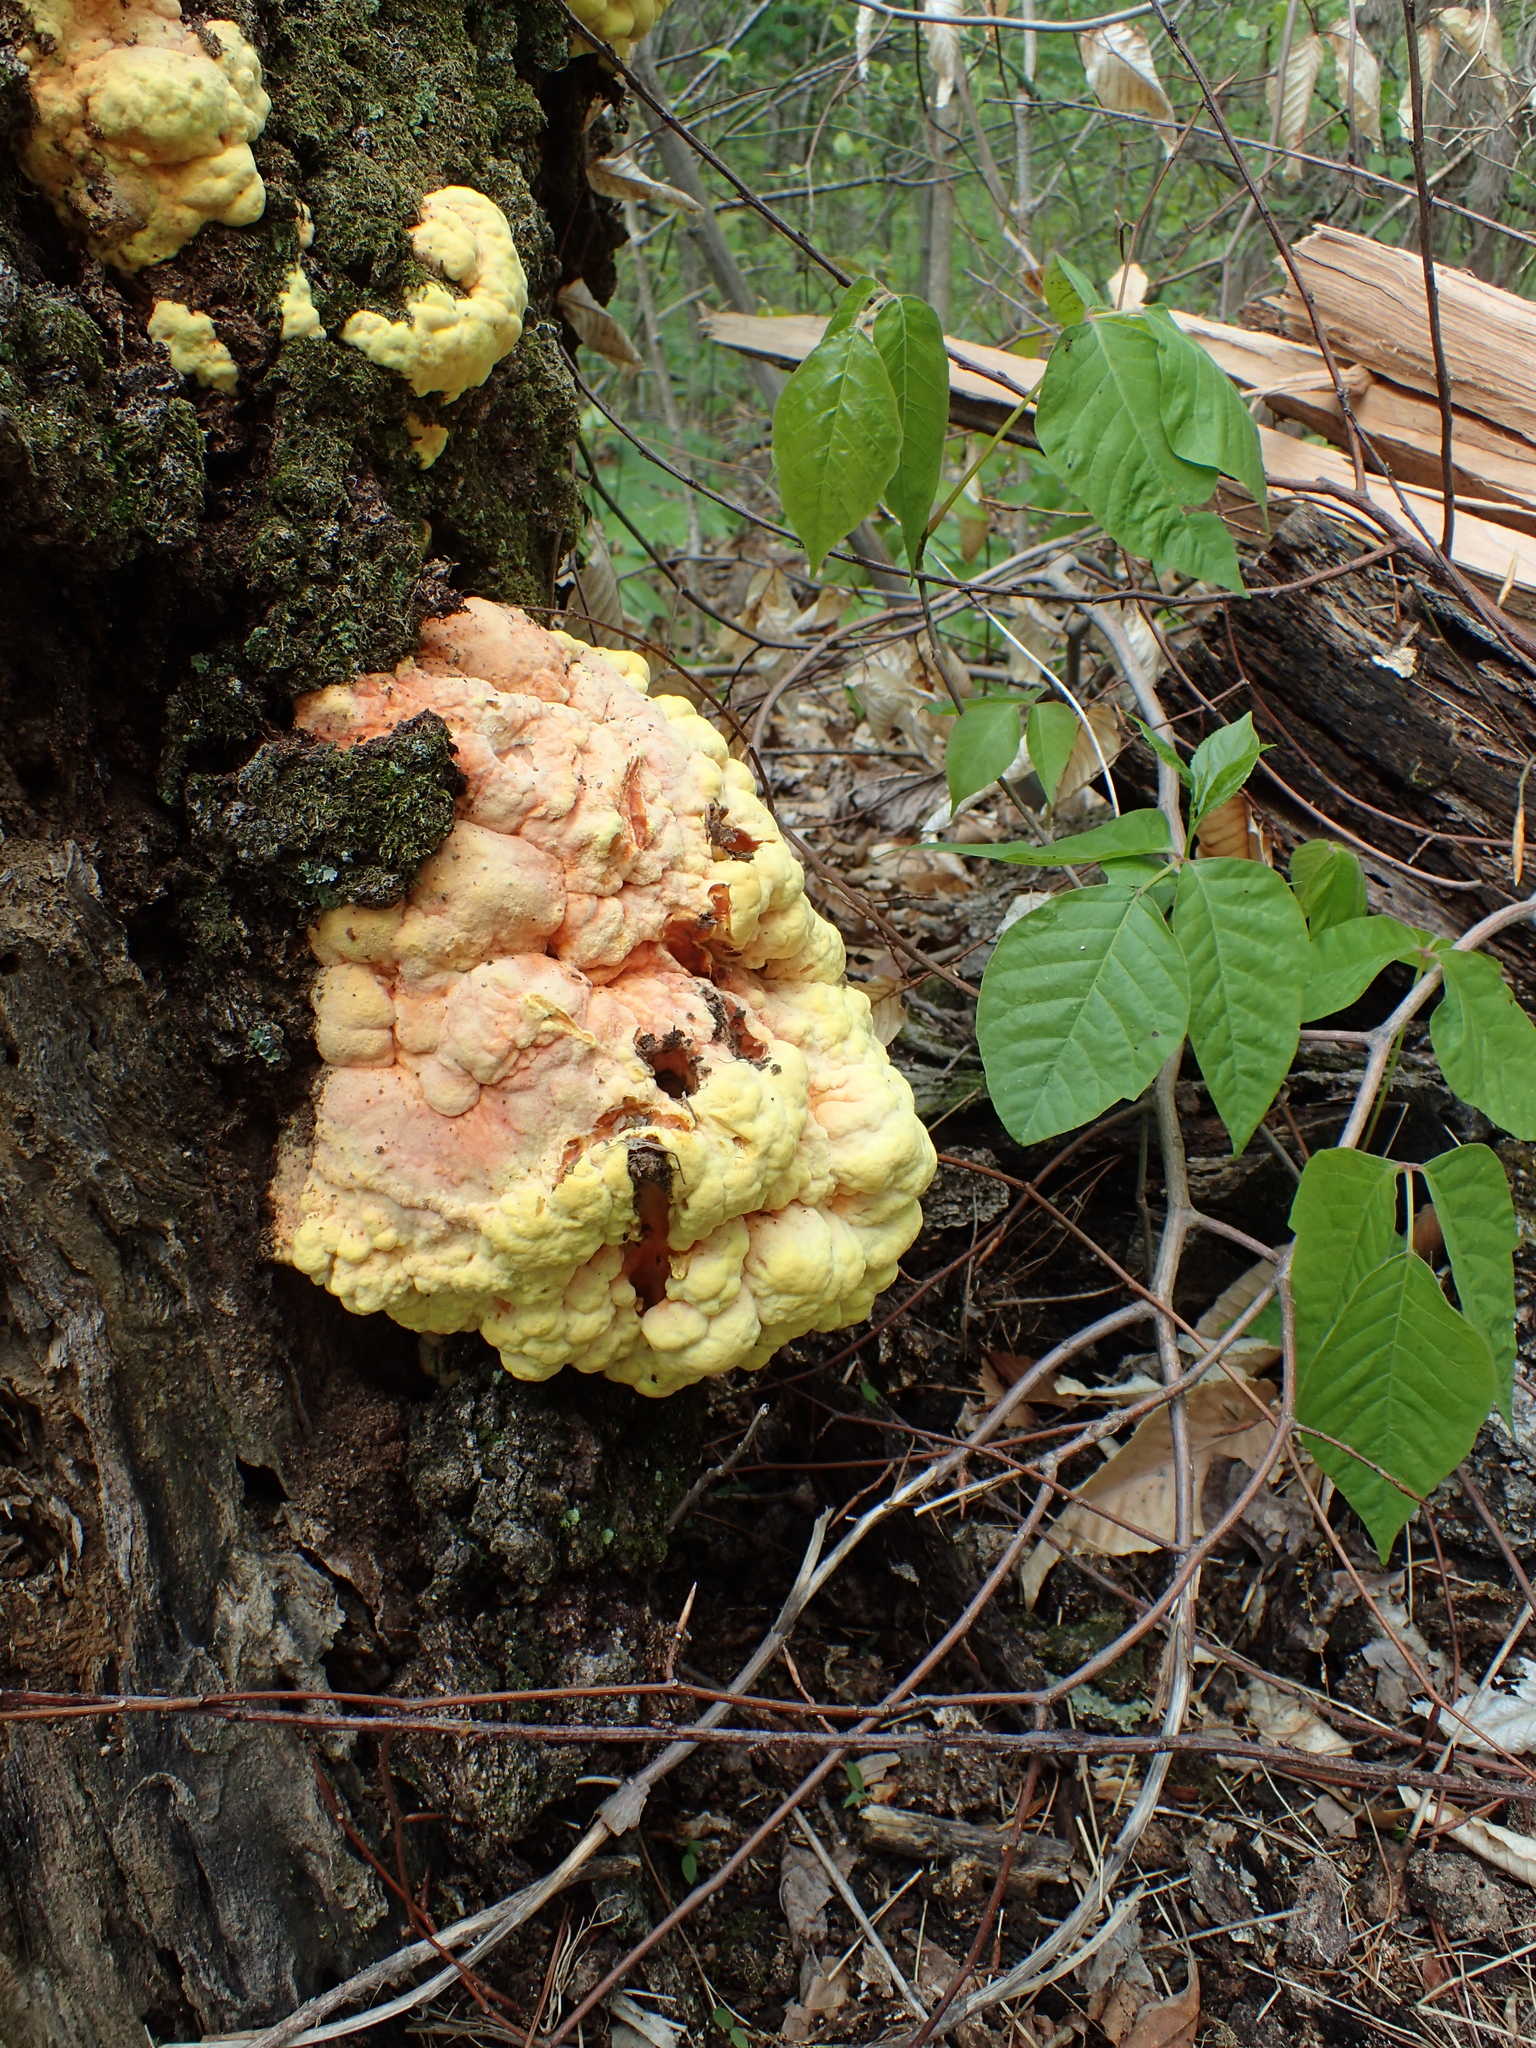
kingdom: Fungi
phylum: Basidiomycota
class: Agaricomycetes
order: Polyporales
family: Laetiporaceae
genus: Laetiporus
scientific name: Laetiporus sulphureus
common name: Chicken of the woods
